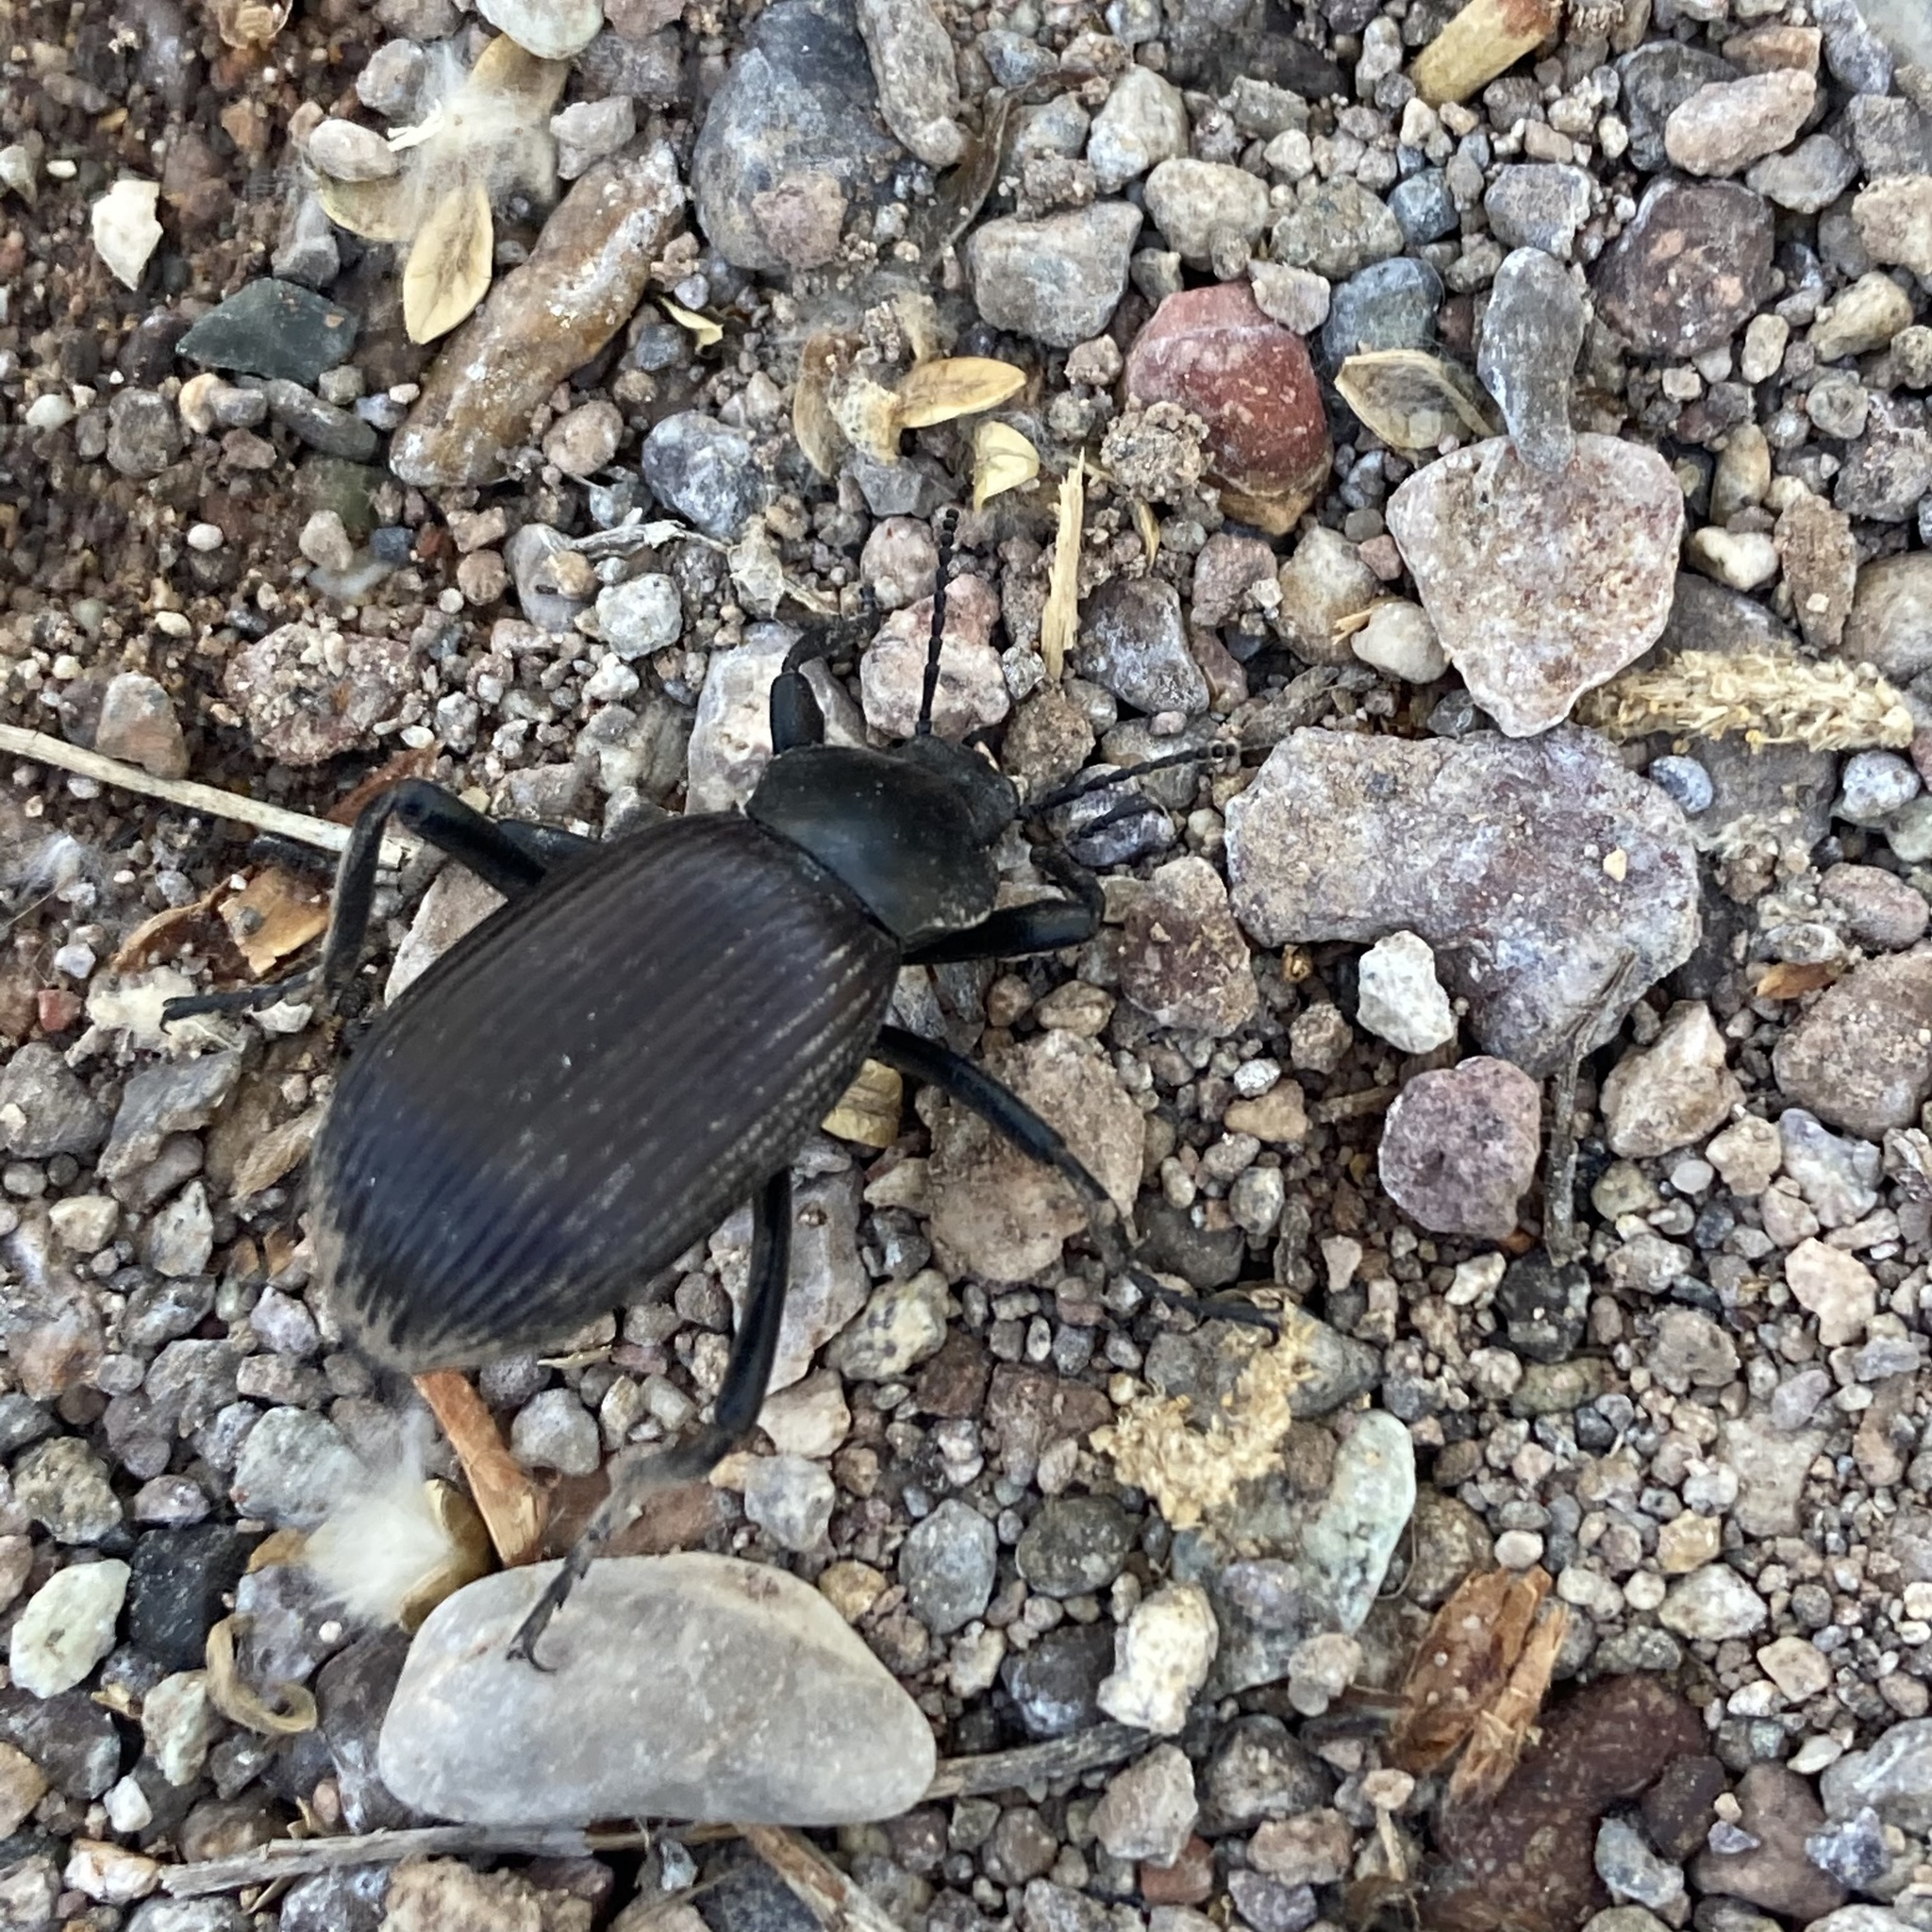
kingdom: Animalia
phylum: Arthropoda
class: Insecta
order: Coleoptera
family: Tenebrionidae
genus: Eleodes
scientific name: Eleodes obscura
